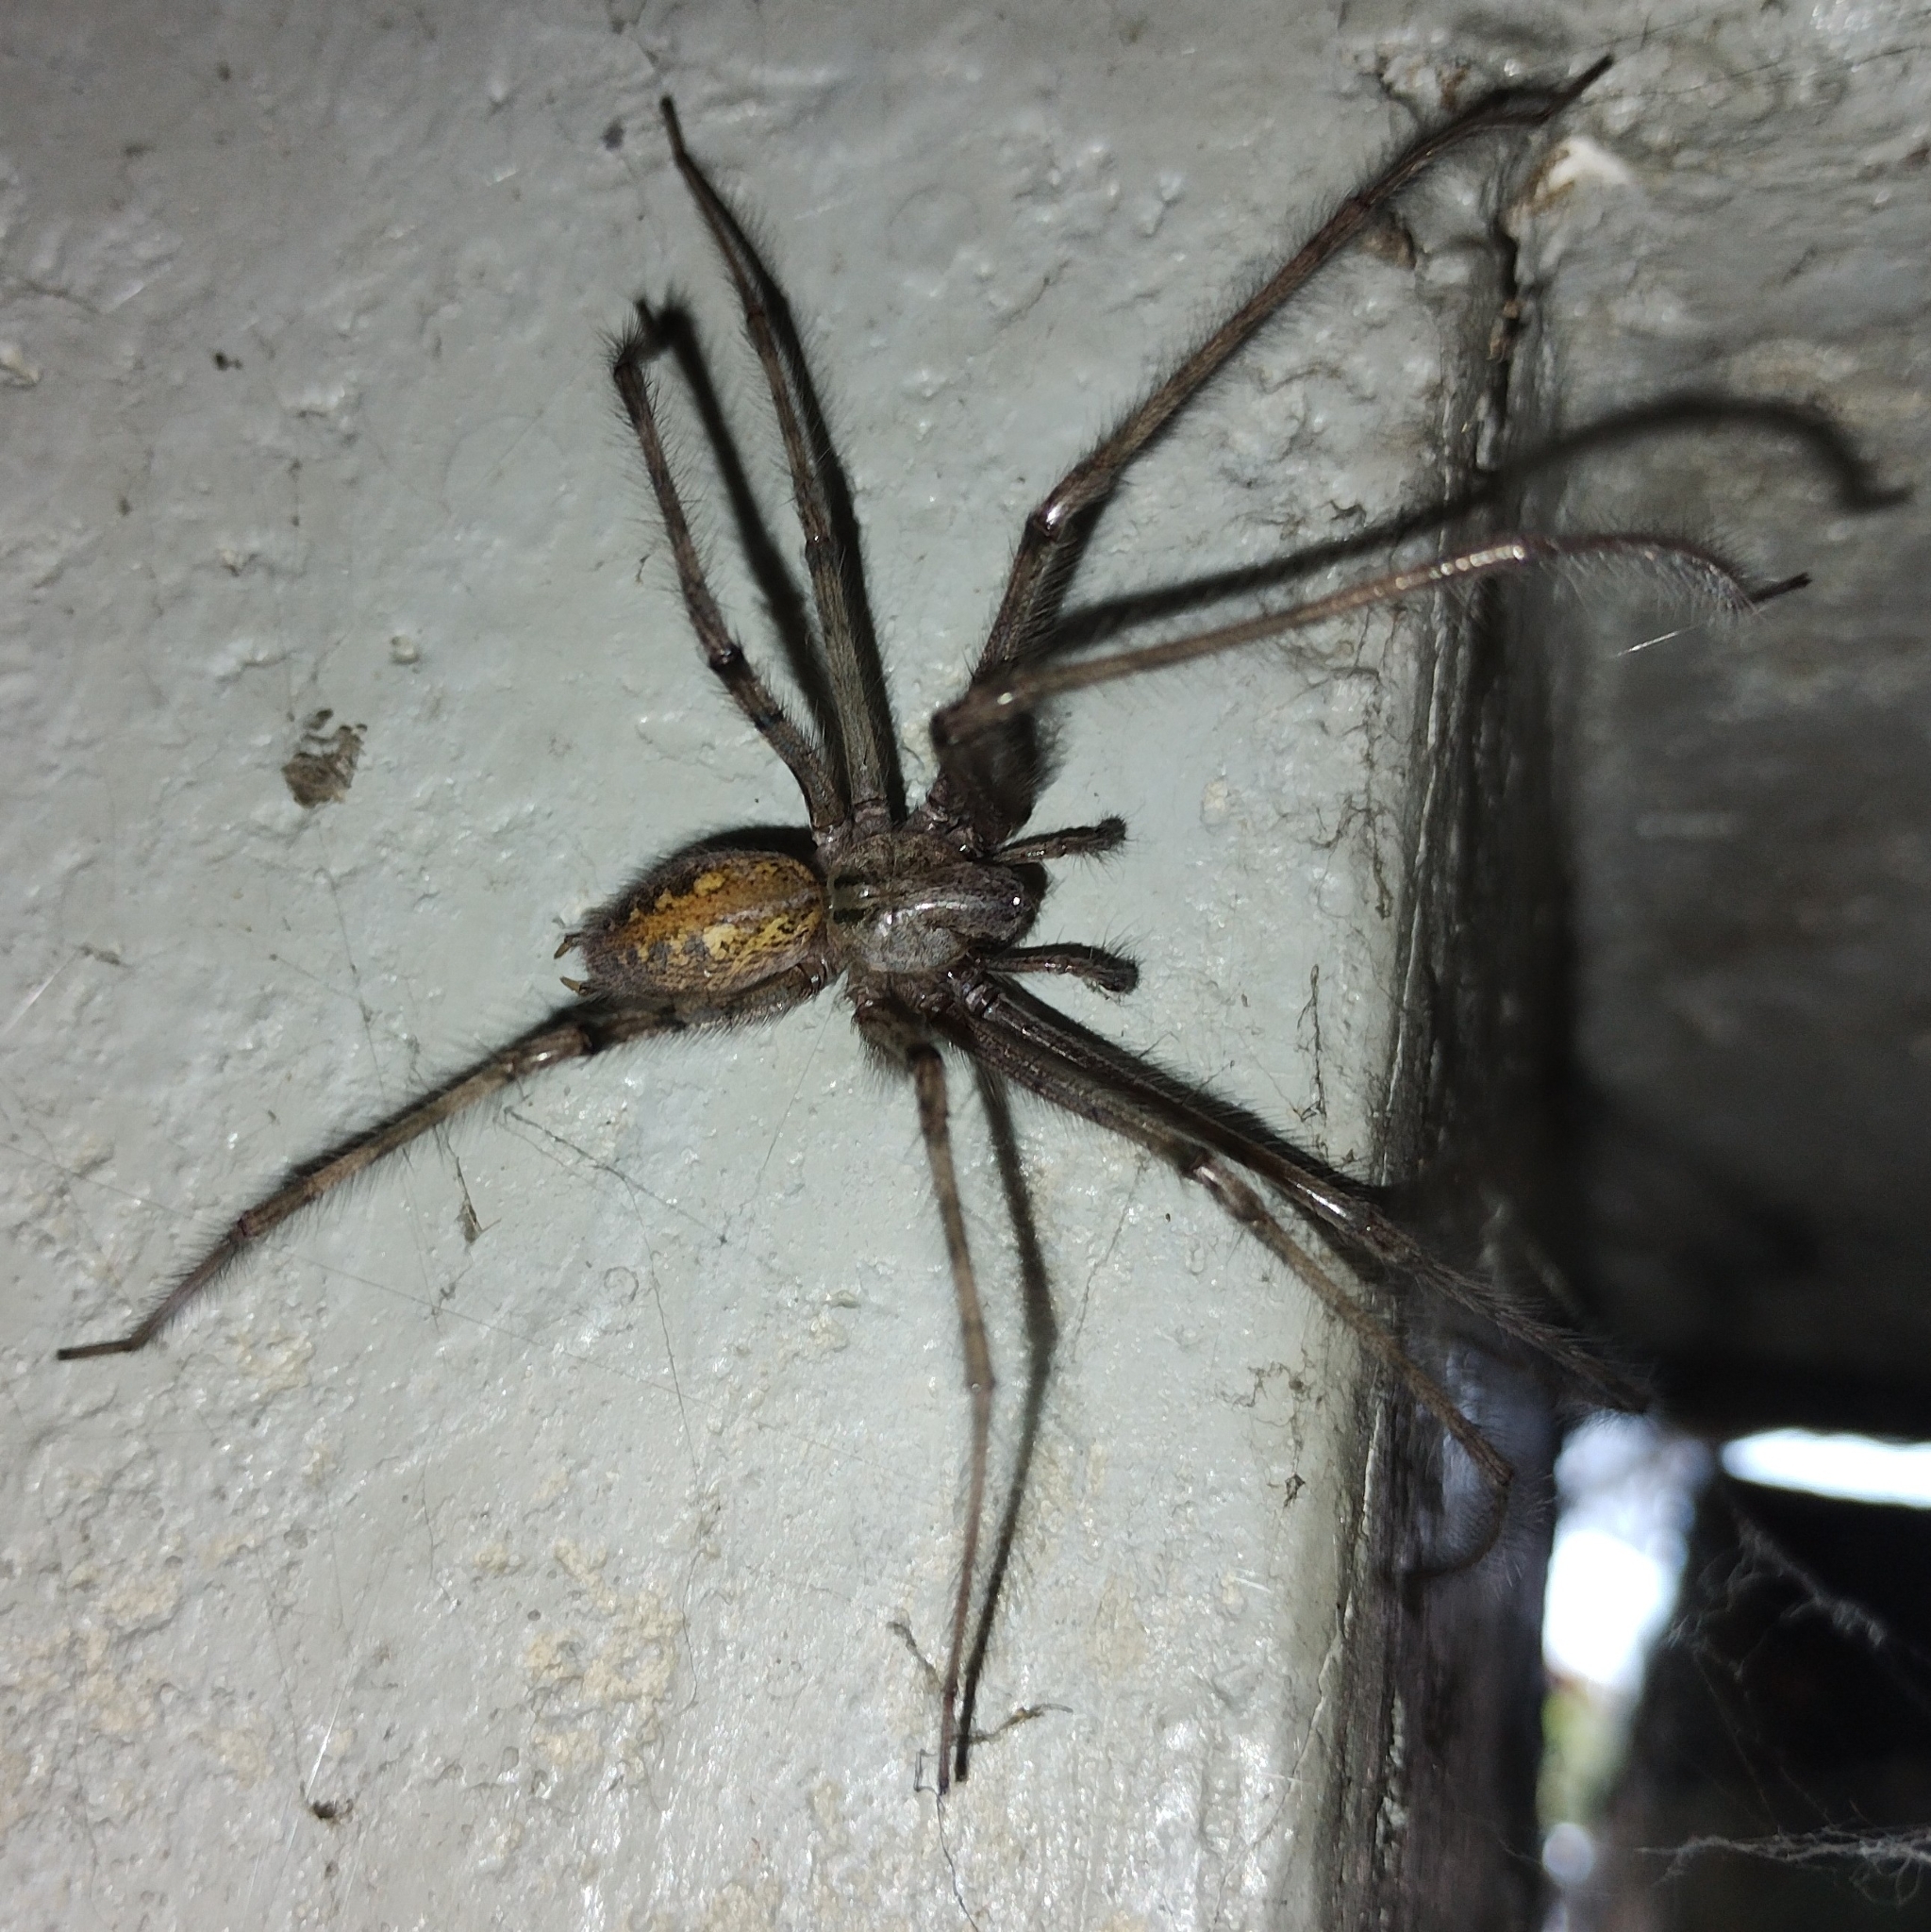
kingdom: Animalia
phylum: Arthropoda
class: Arachnida
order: Araneae
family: Agelenidae
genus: Tegenaria
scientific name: Tegenaria parietina
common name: Cardinal spider
